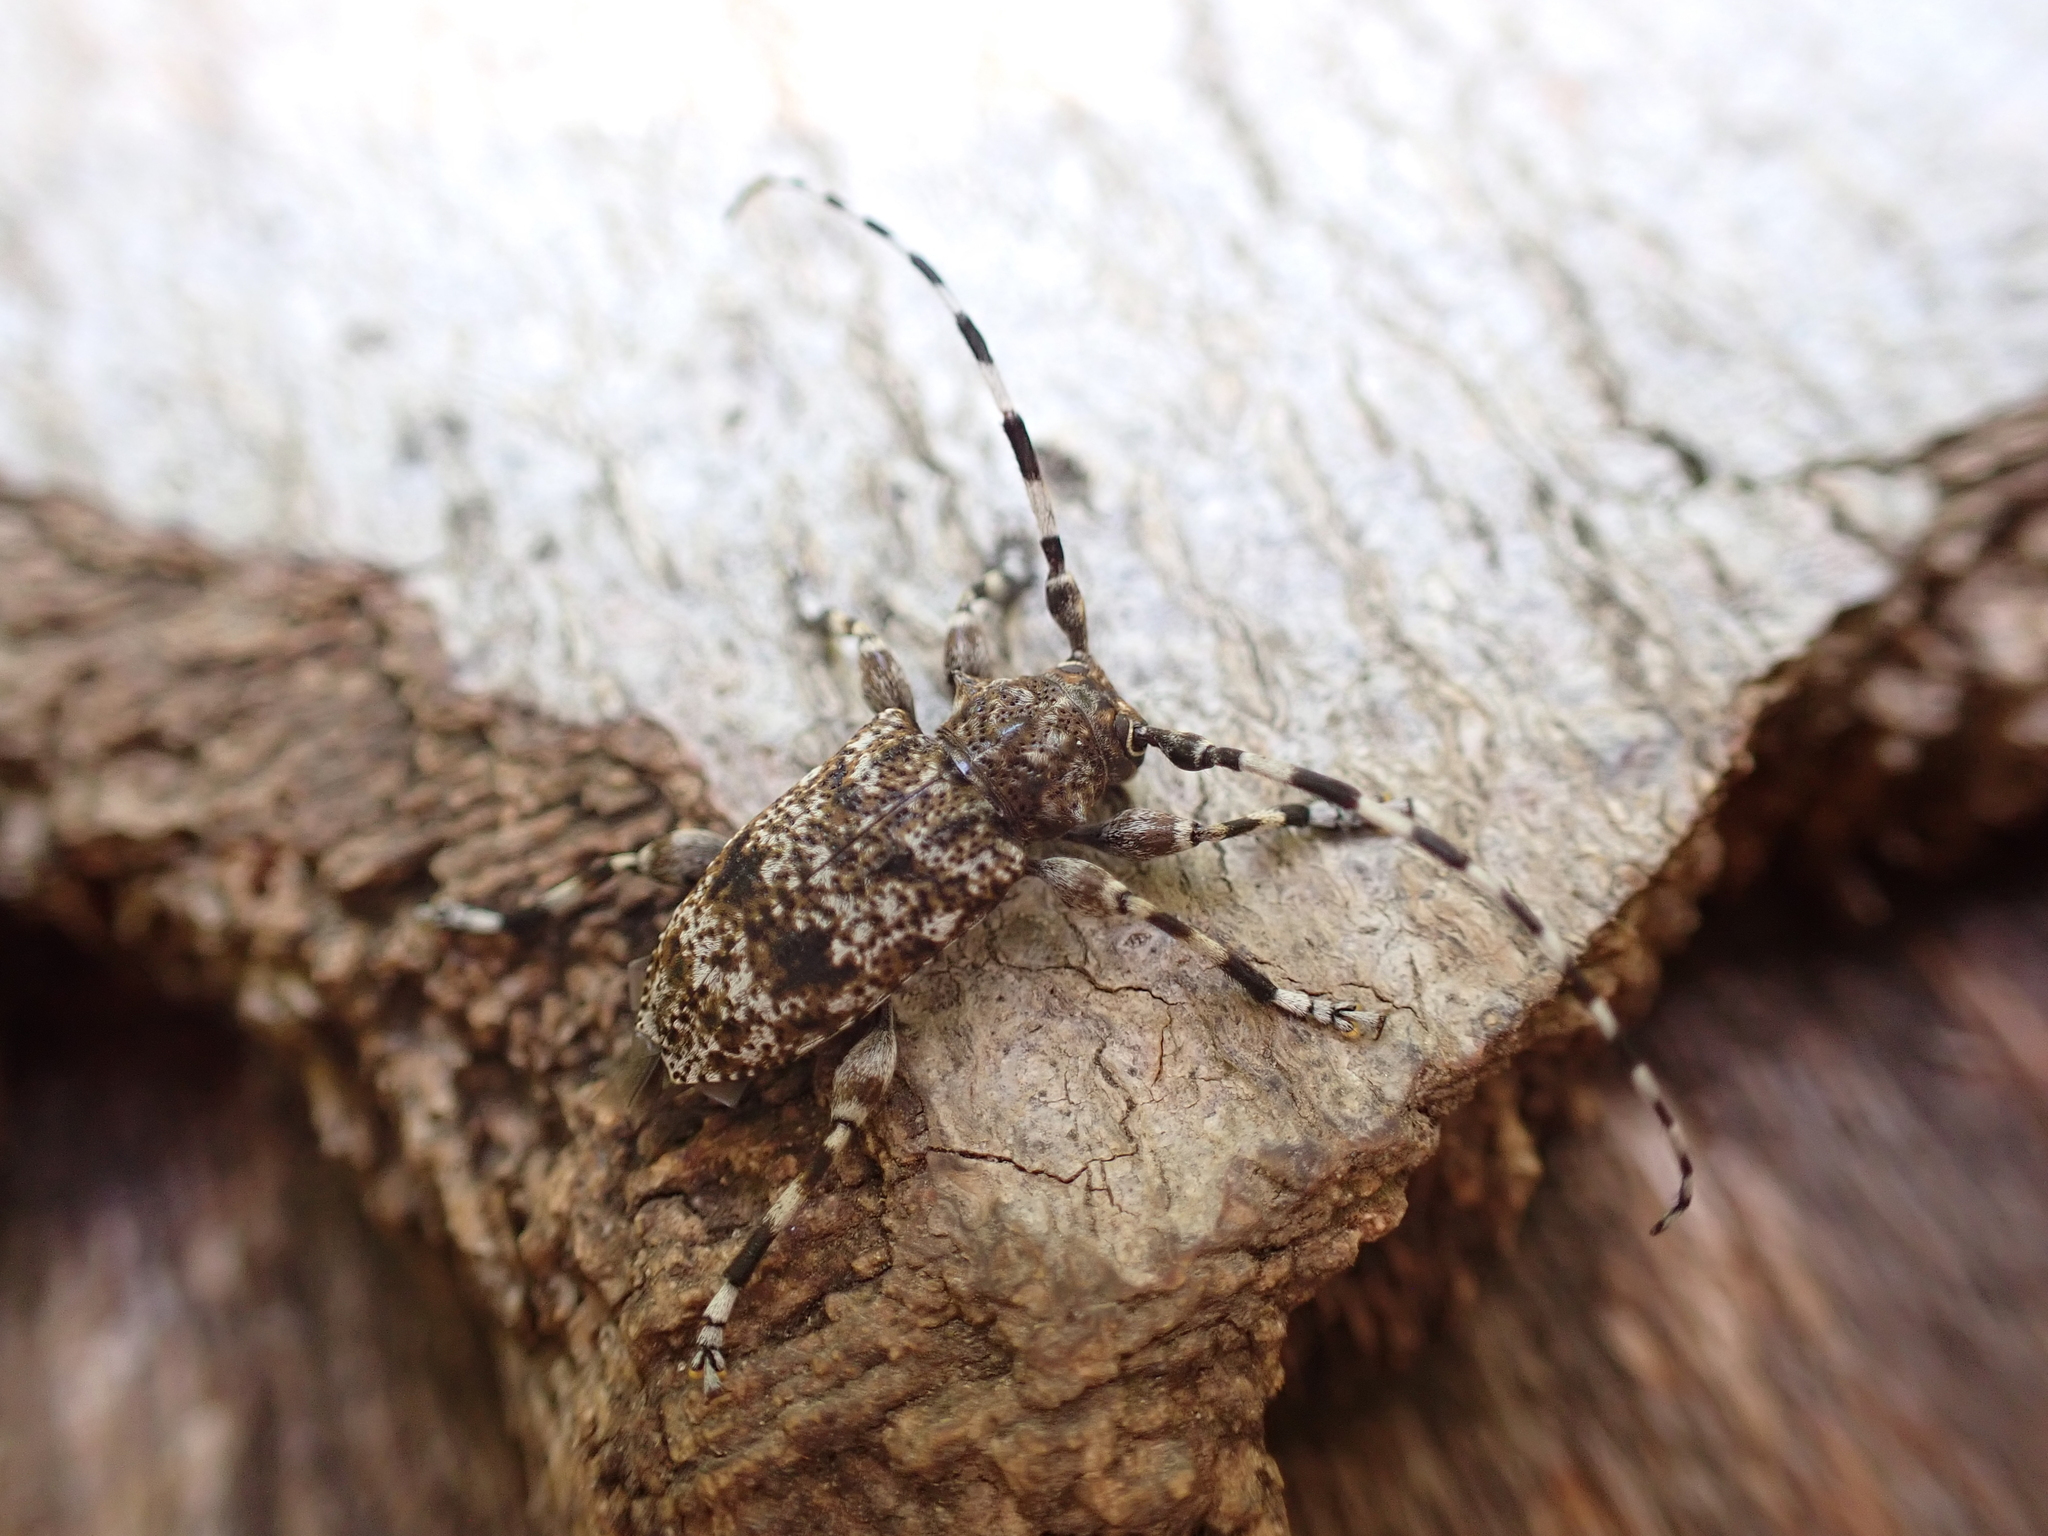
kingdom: Animalia
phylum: Arthropoda
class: Insecta
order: Coleoptera
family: Cerambycidae
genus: Aegomorphus
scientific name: Aegomorphus clavipes
